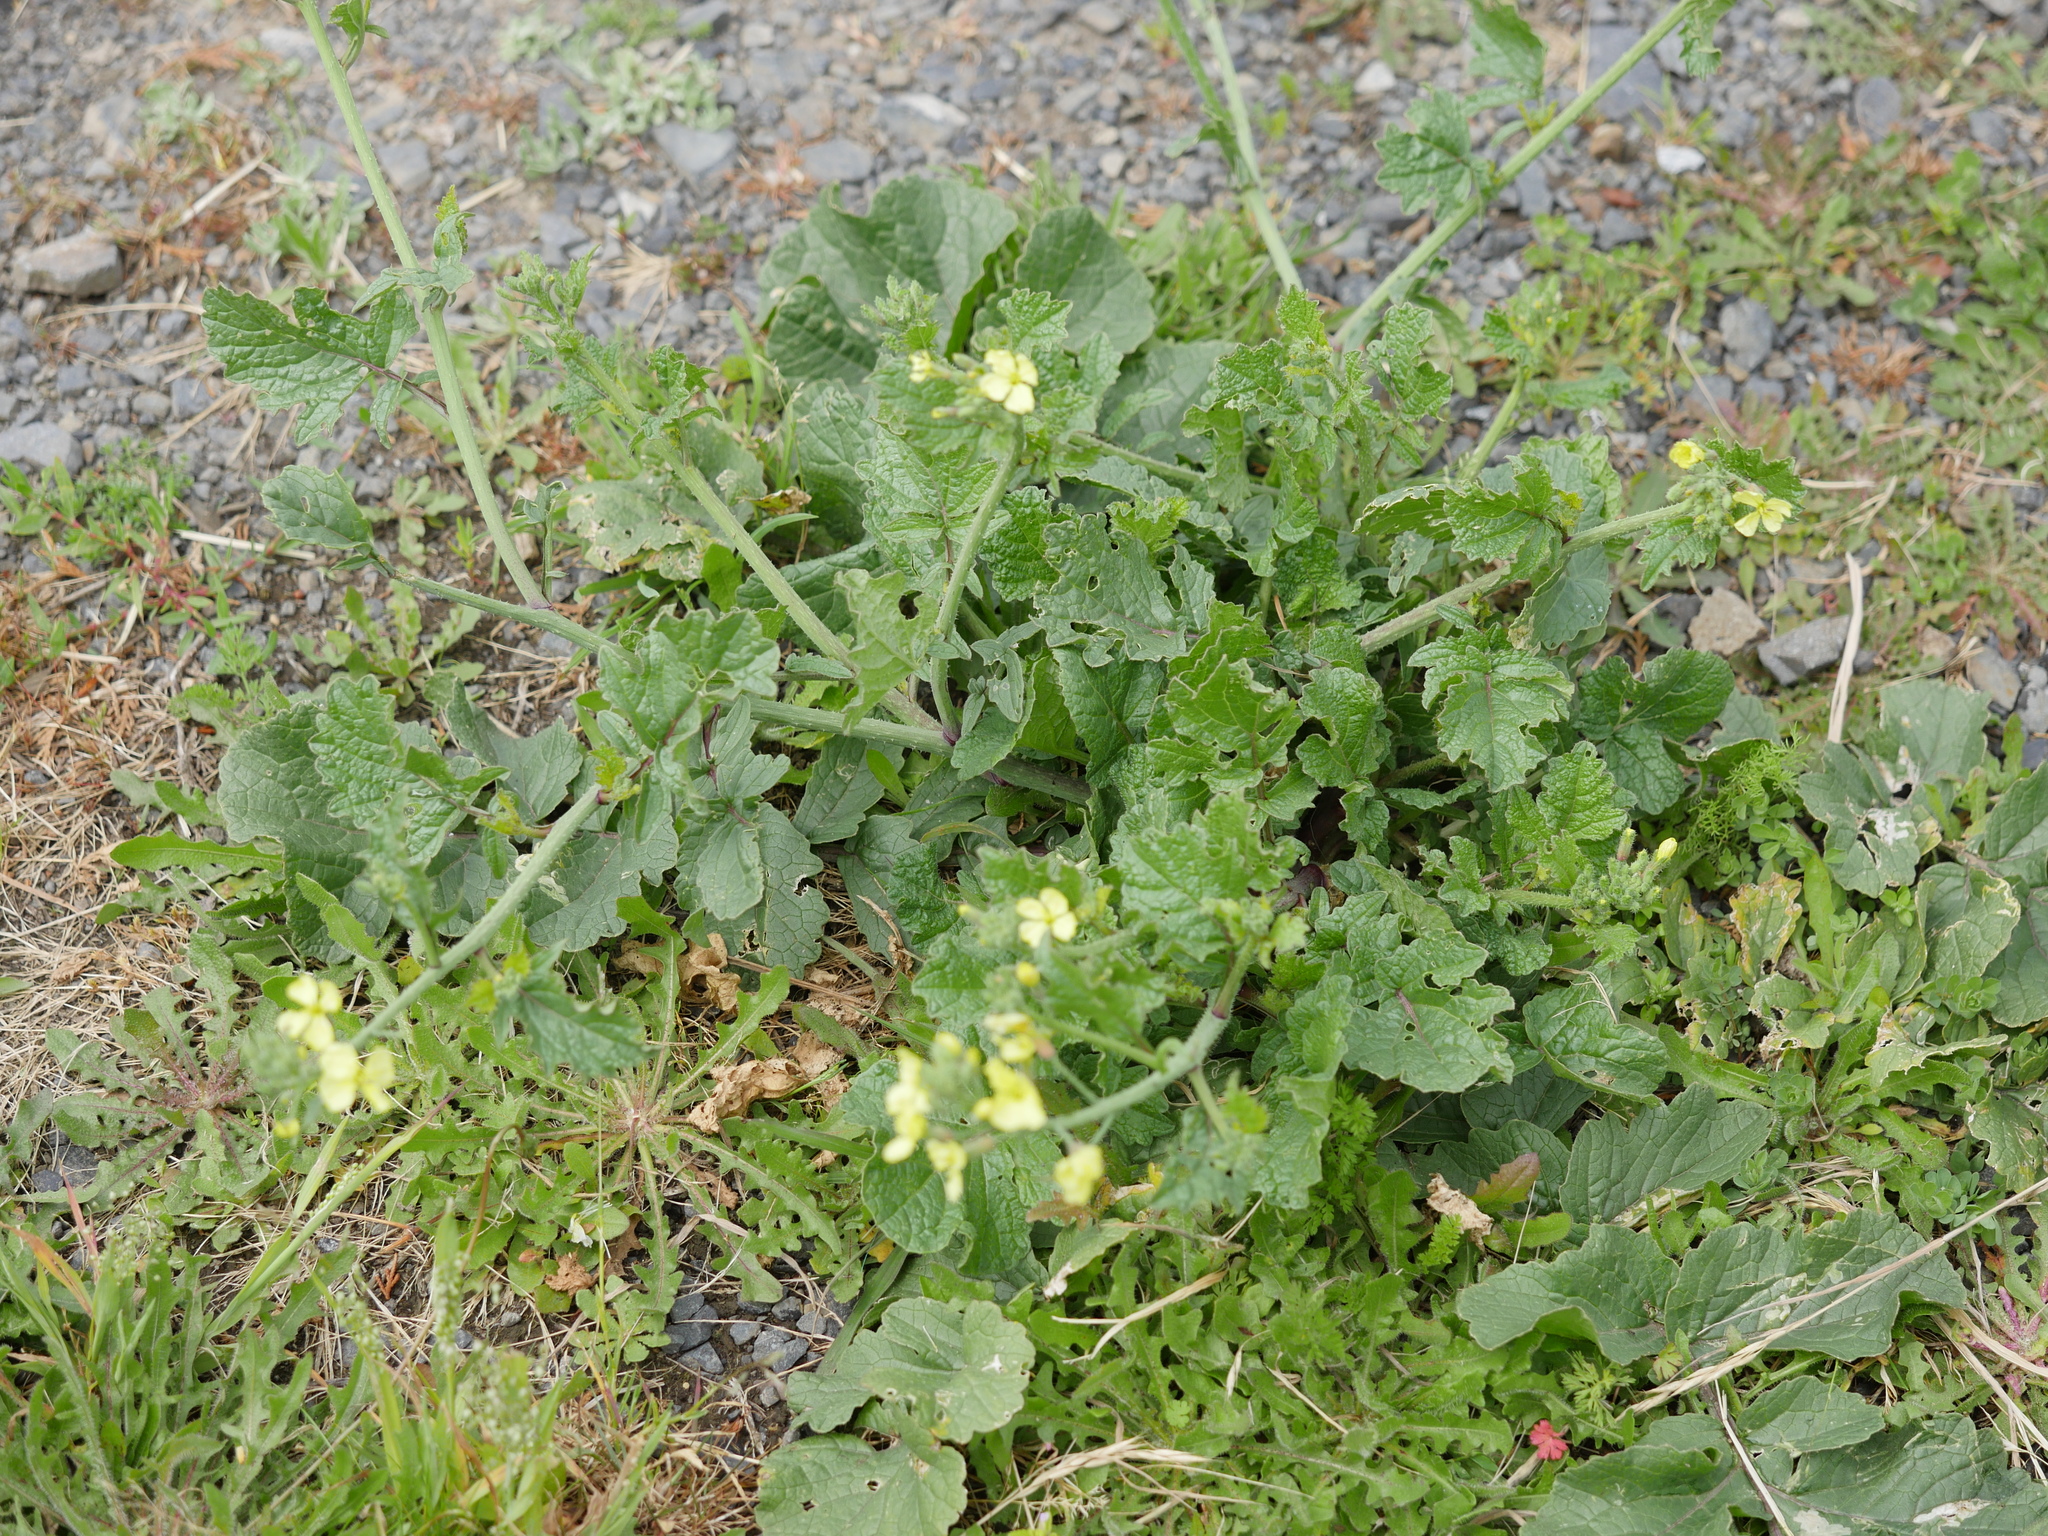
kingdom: Plantae
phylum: Tracheophyta
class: Magnoliopsida
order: Brassicales
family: Brassicaceae
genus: Raphanus
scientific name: Raphanus raphanistrum
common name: Wild radish
